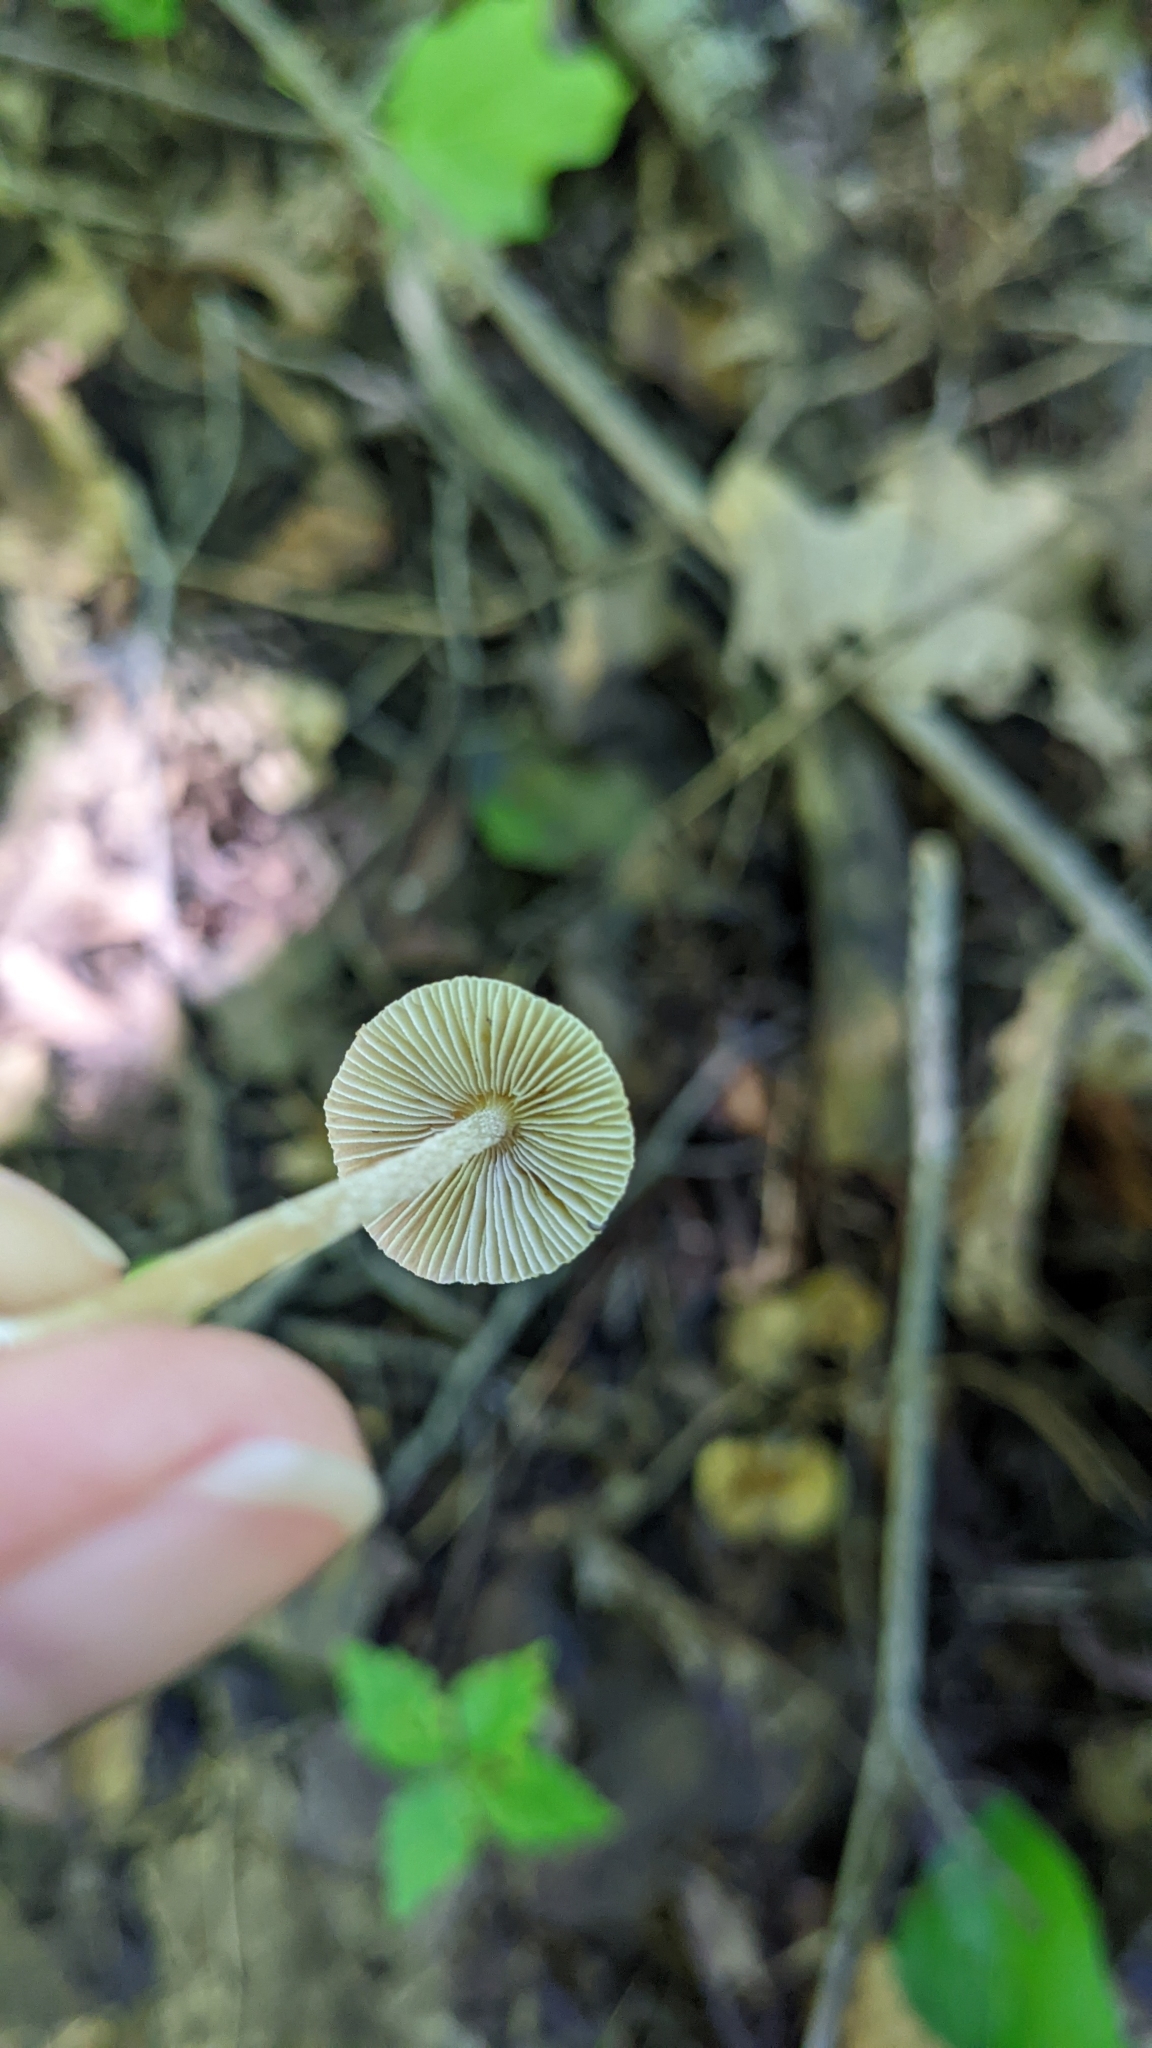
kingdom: Fungi
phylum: Basidiomycota
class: Agaricomycetes
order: Agaricales
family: Inocybaceae
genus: Pseudosperma
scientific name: Pseudosperma friabile
